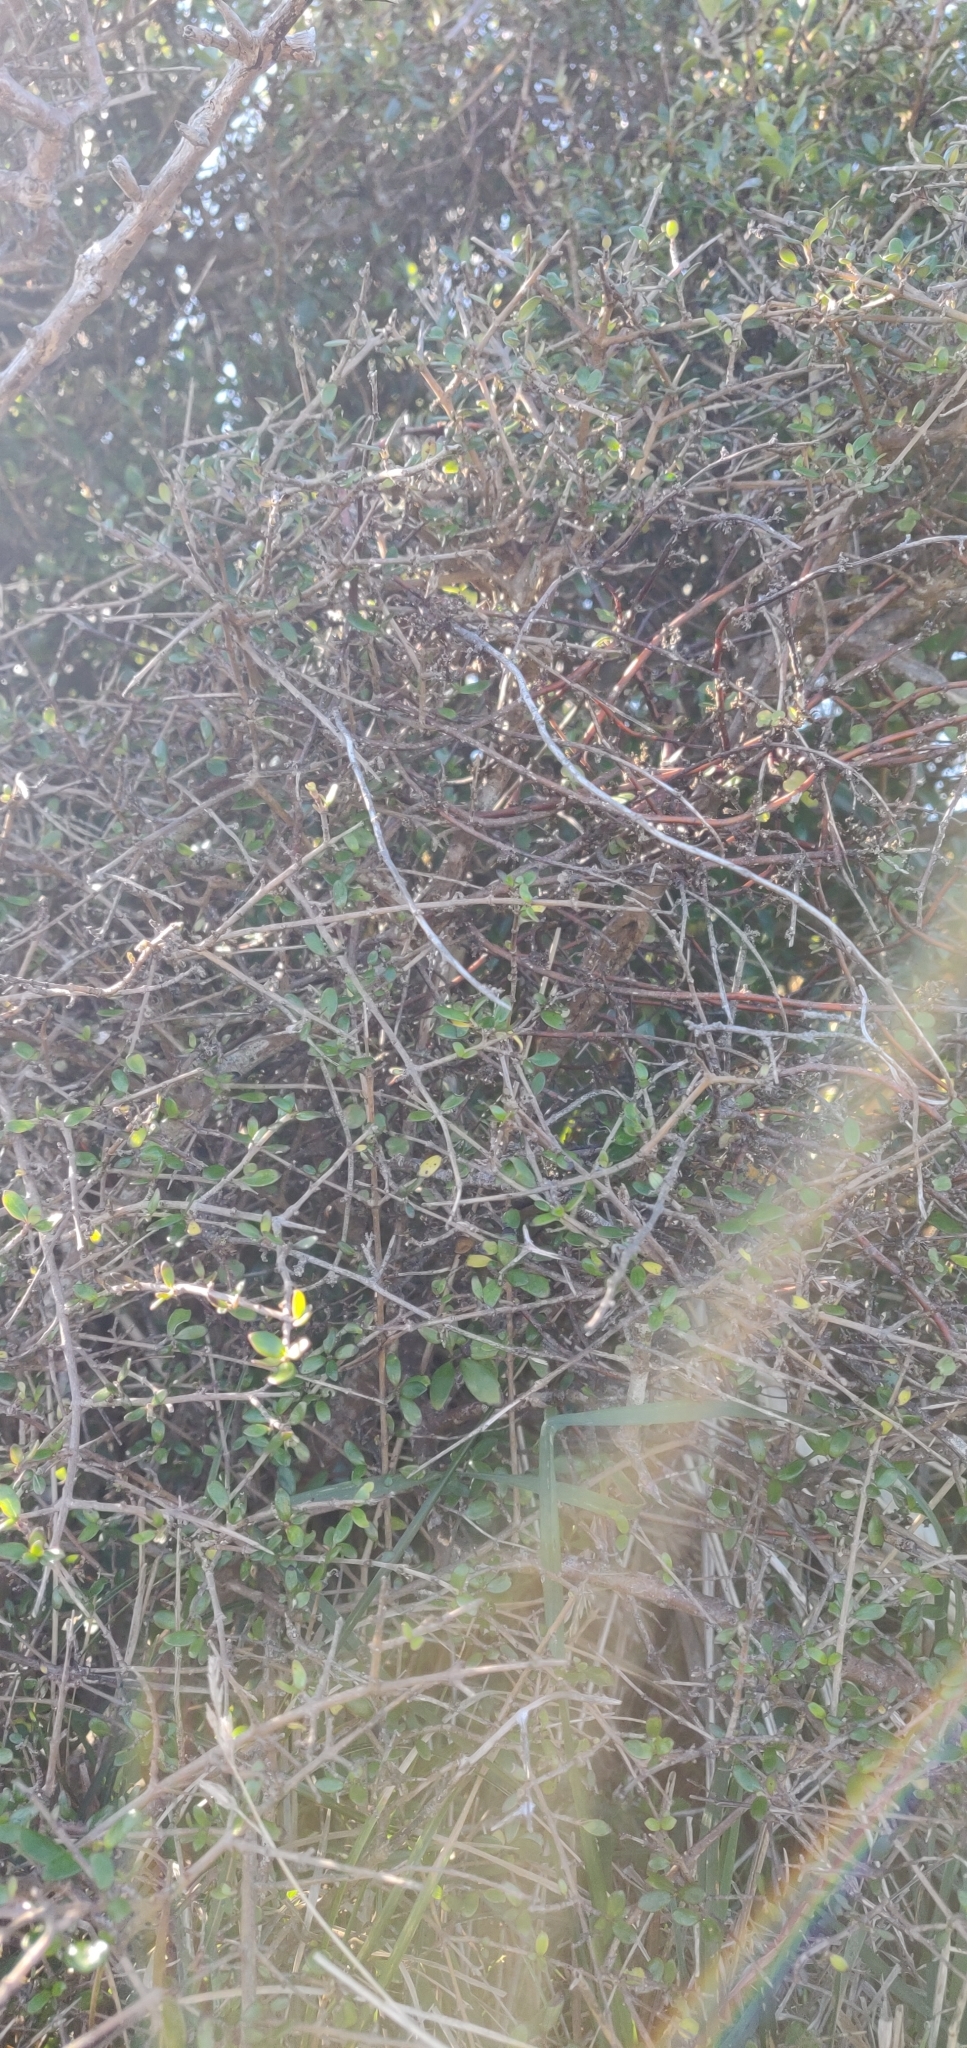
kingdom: Plantae
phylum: Tracheophyta
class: Magnoliopsida
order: Gentianales
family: Rubiaceae
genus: Coprosma
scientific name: Coprosma crassifolia
